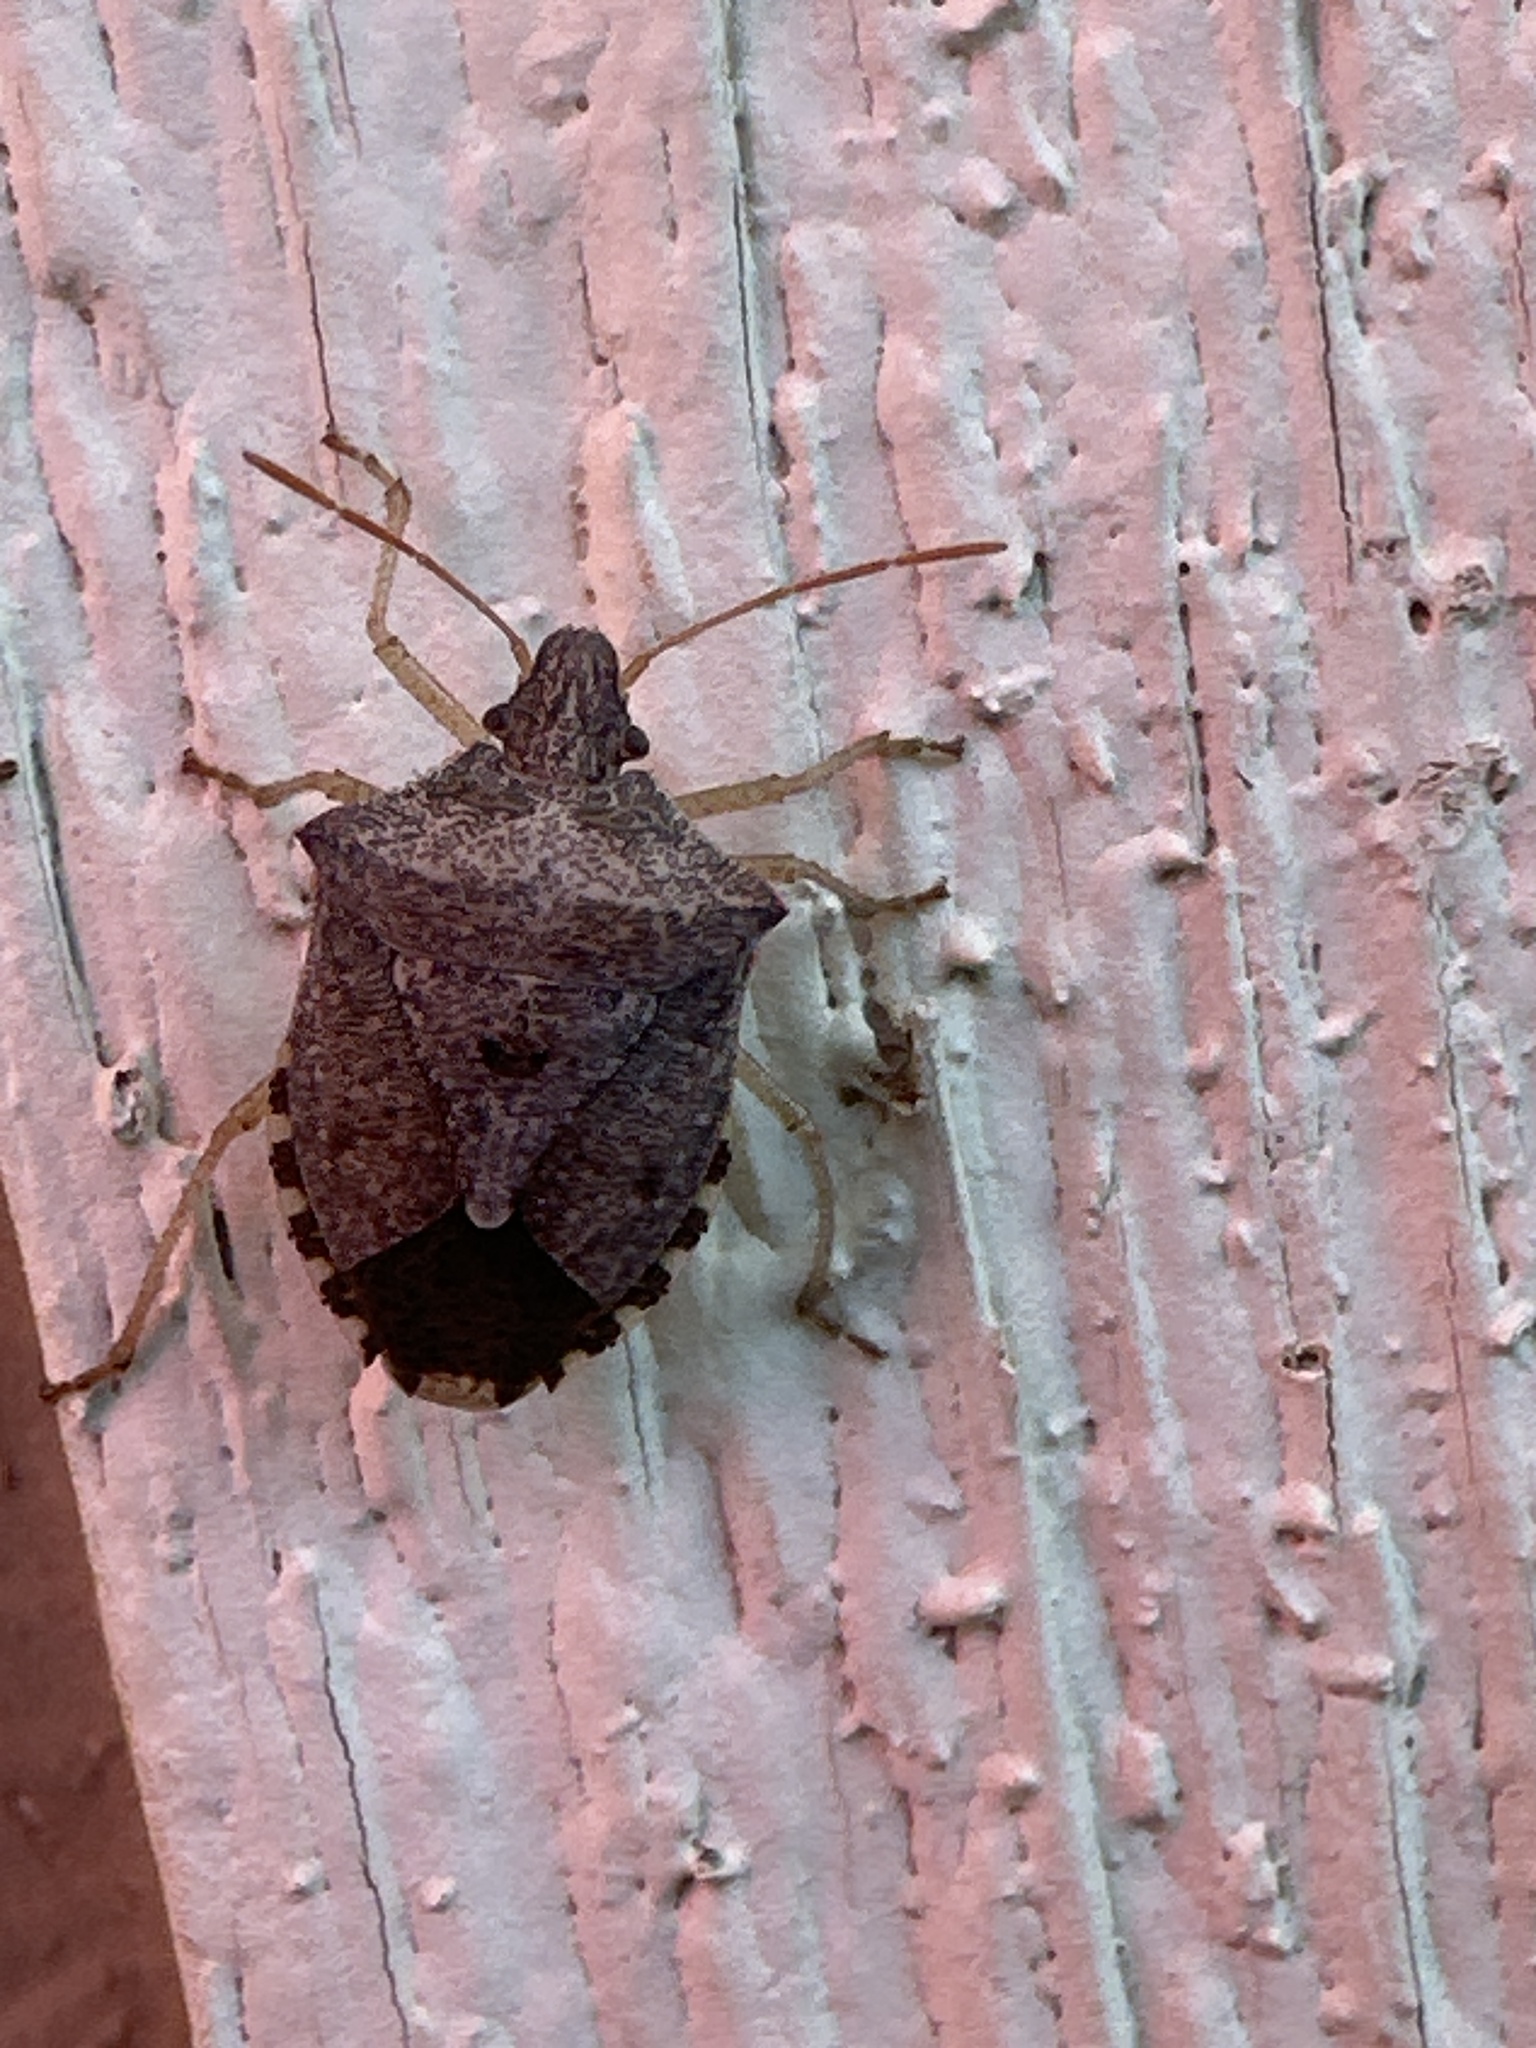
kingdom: Animalia
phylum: Arthropoda
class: Insecta
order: Hemiptera
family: Pentatomidae
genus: Euschistus
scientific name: Euschistus servus
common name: Brown stink bug
